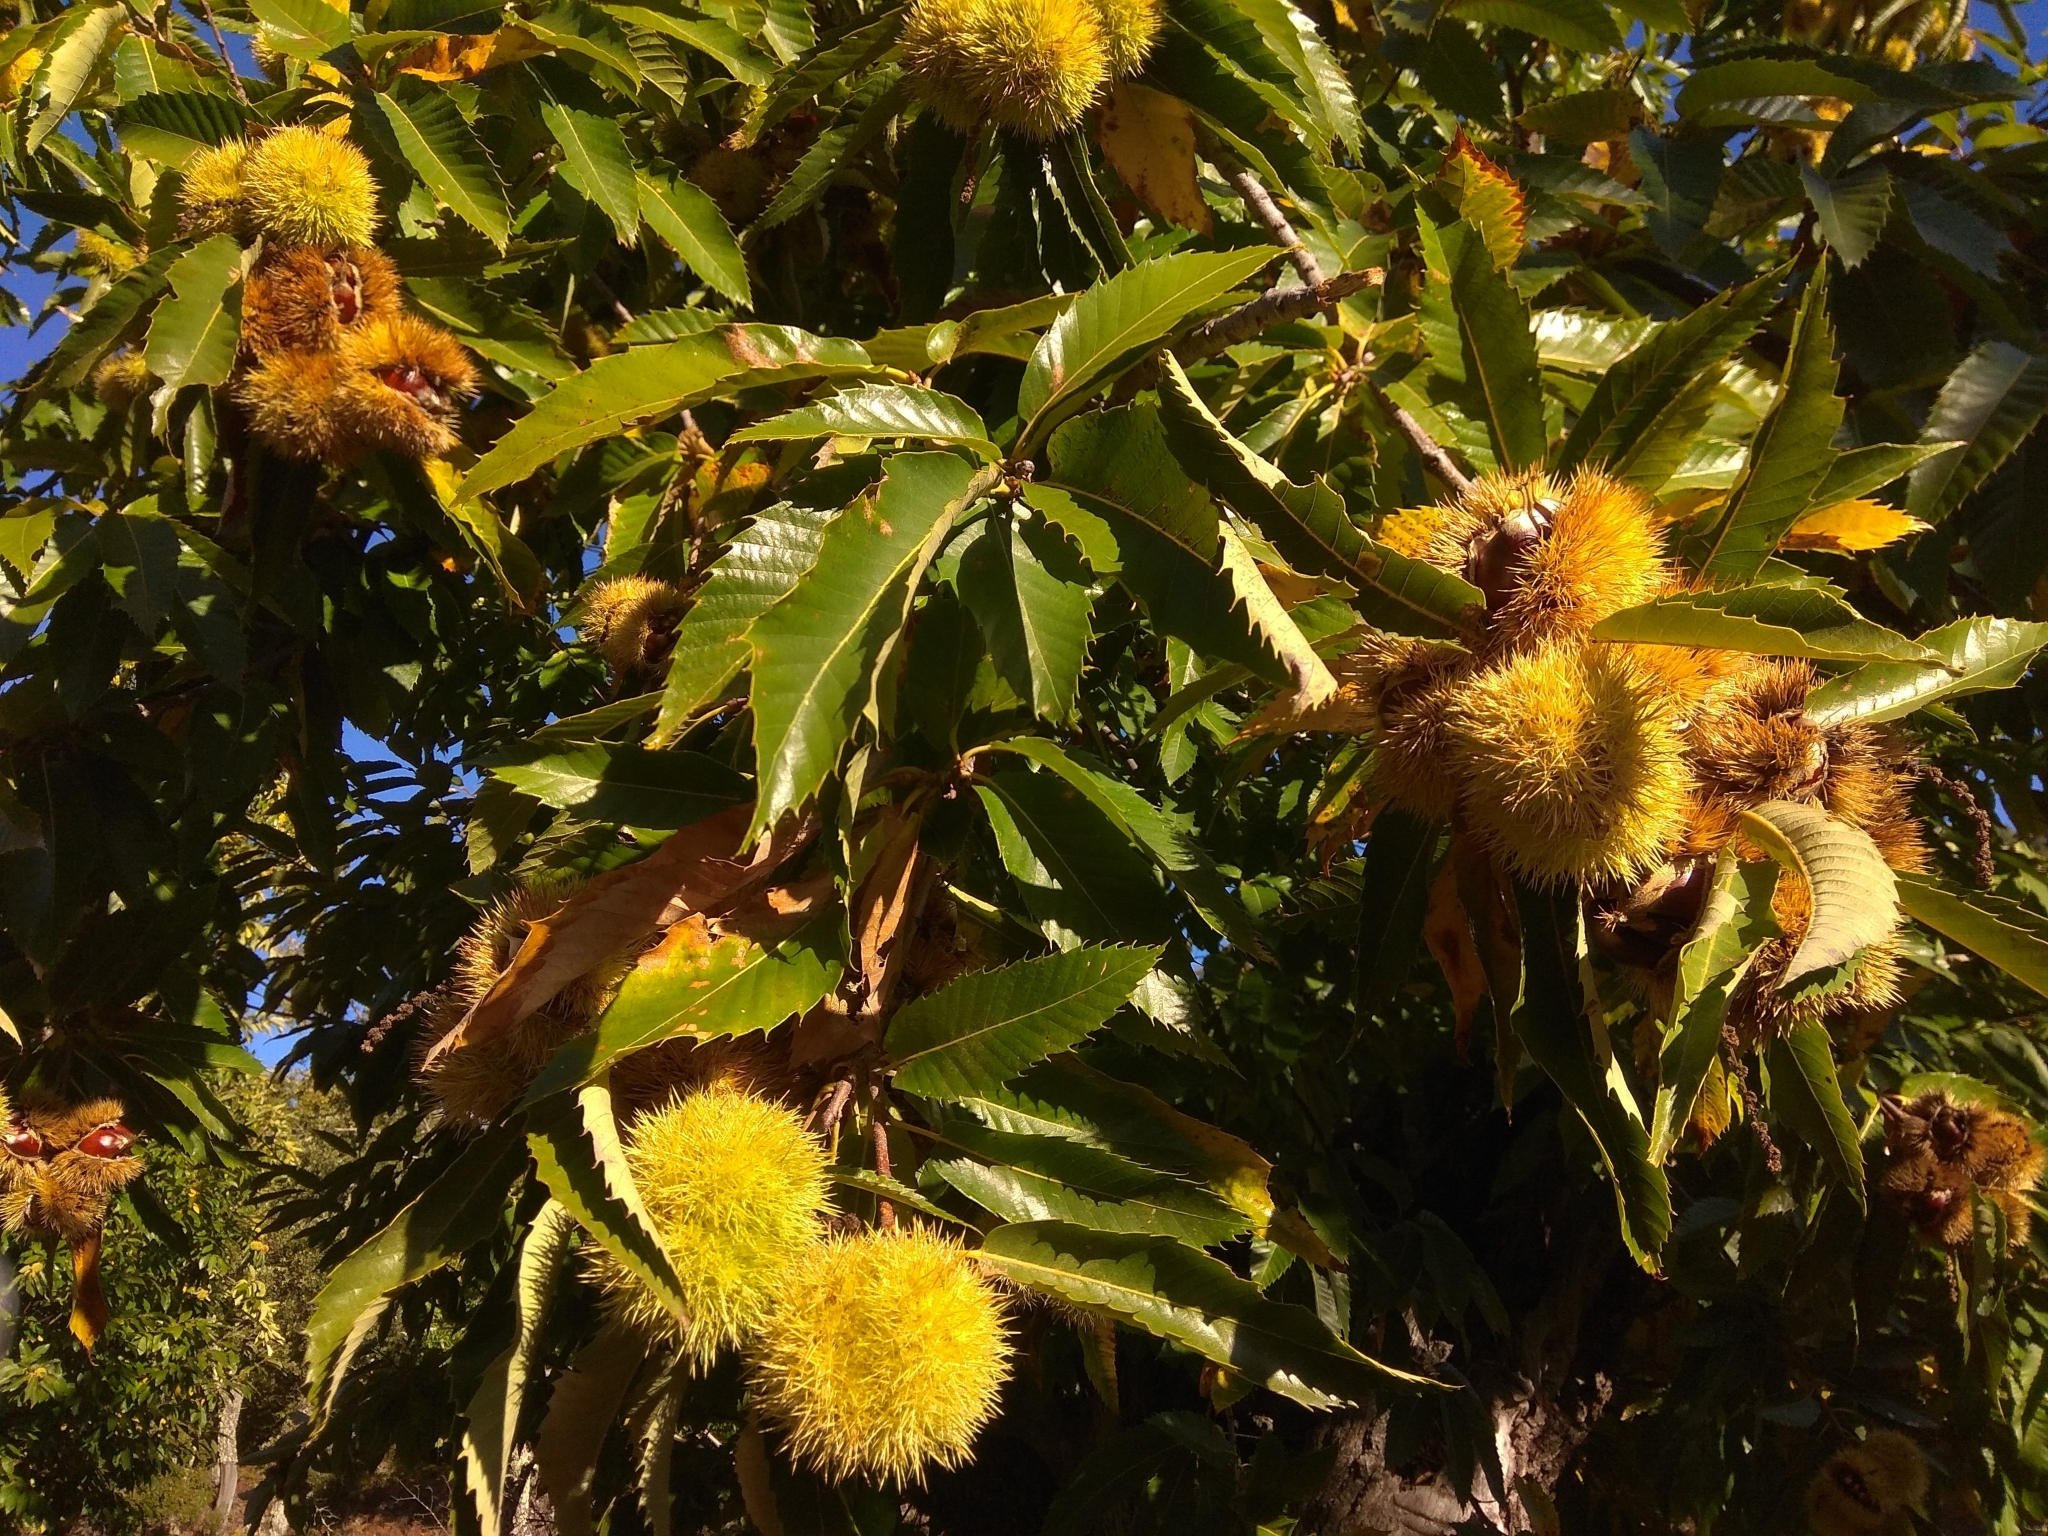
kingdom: Plantae
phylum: Tracheophyta
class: Magnoliopsida
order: Fagales
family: Fagaceae
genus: Castanea
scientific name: Castanea sativa
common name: Sweet chestnut
